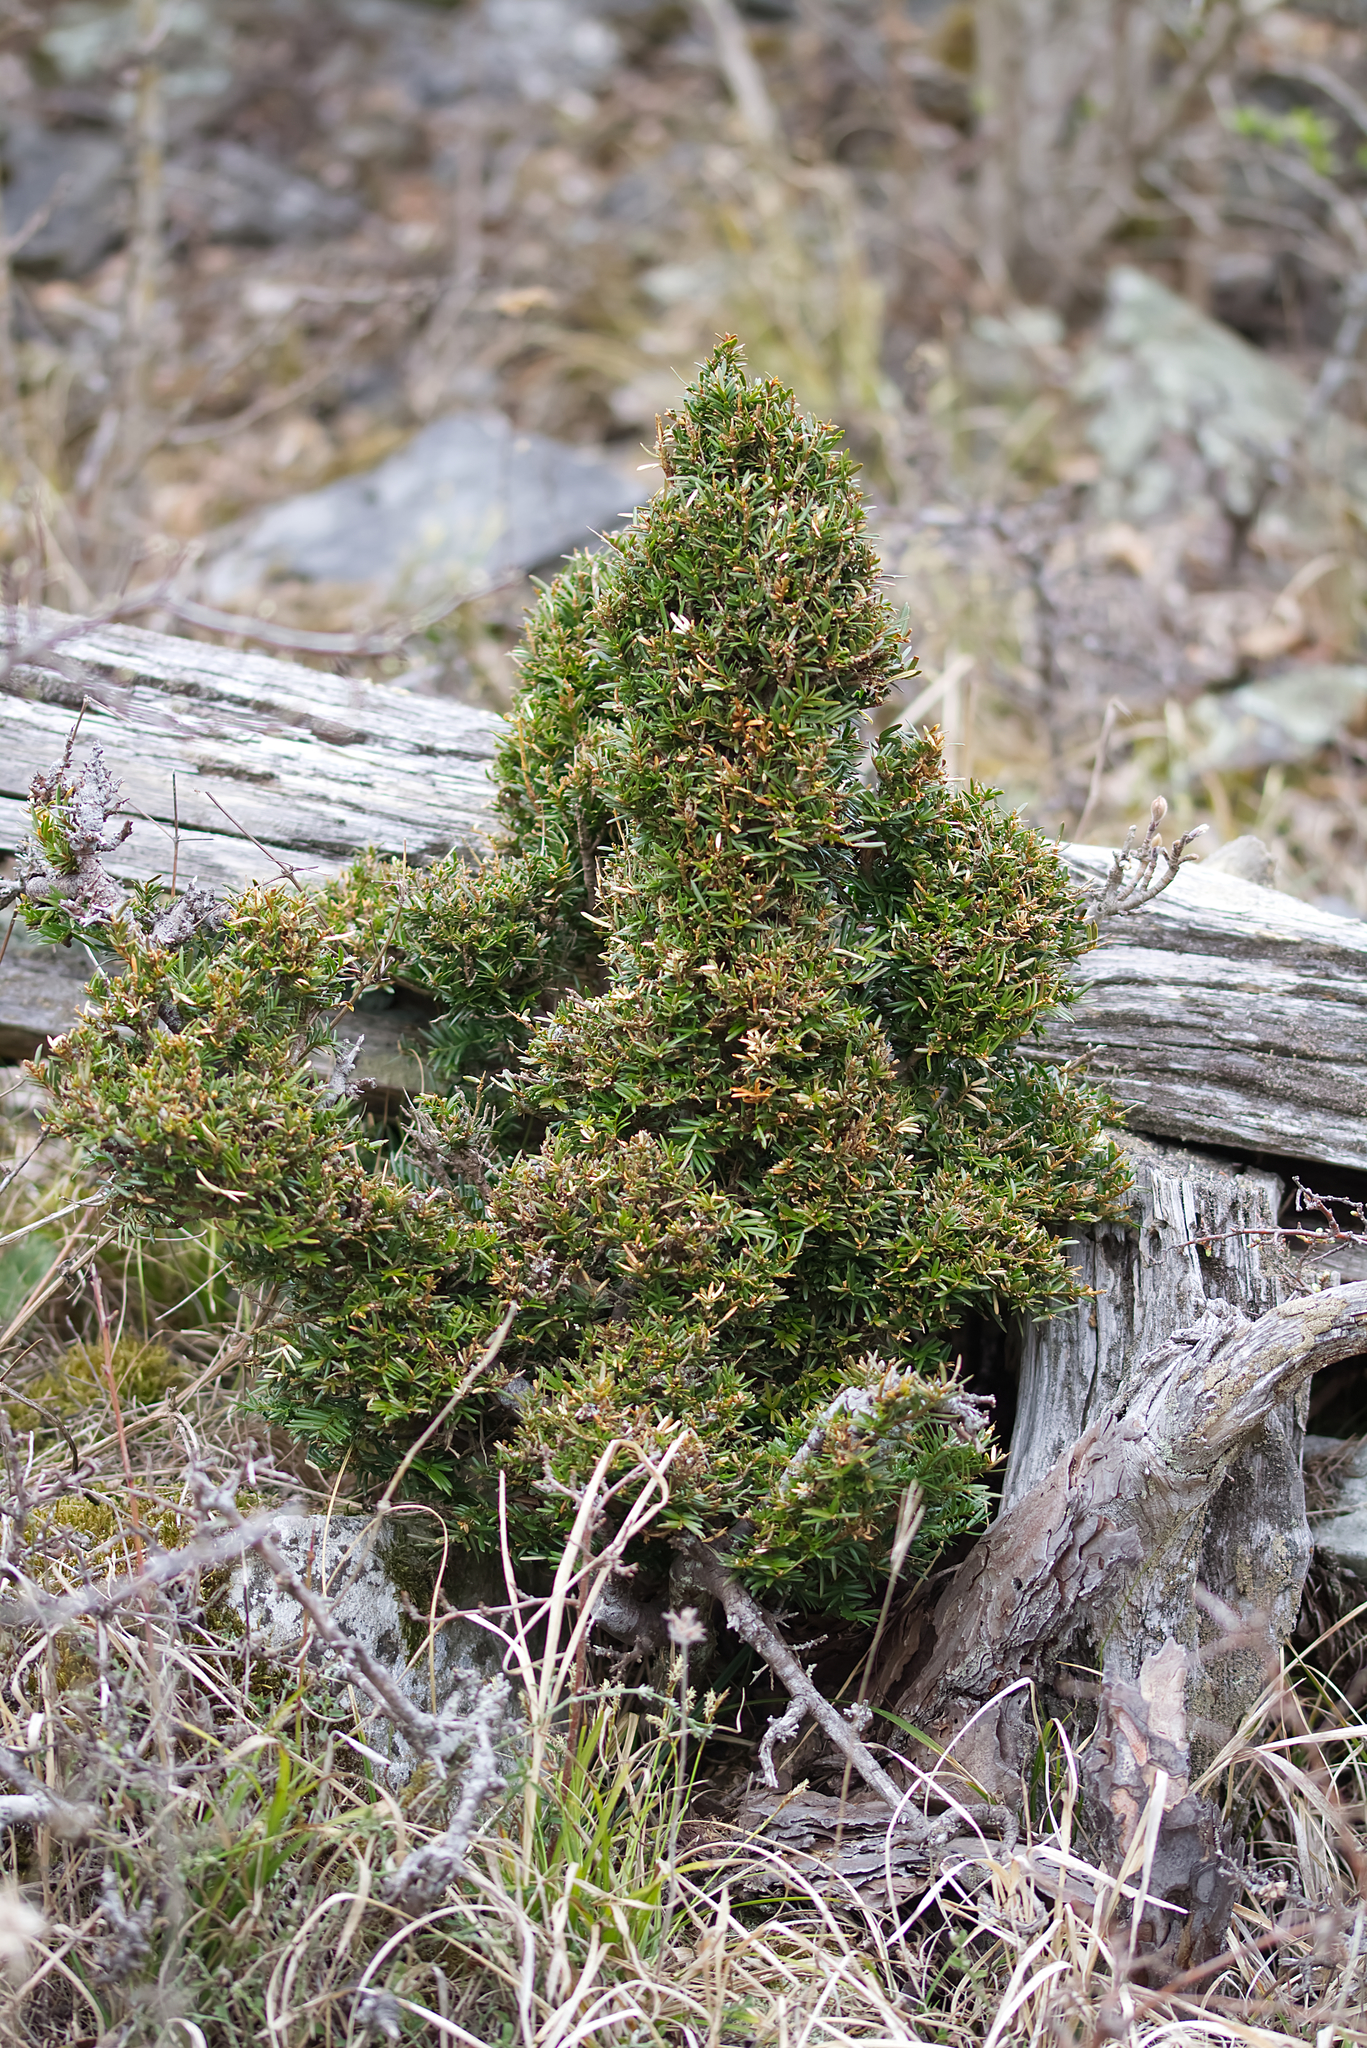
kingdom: Plantae
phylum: Tracheophyta
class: Pinopsida
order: Pinales
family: Taxaceae
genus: Taxus
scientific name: Taxus baccata
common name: Yew
